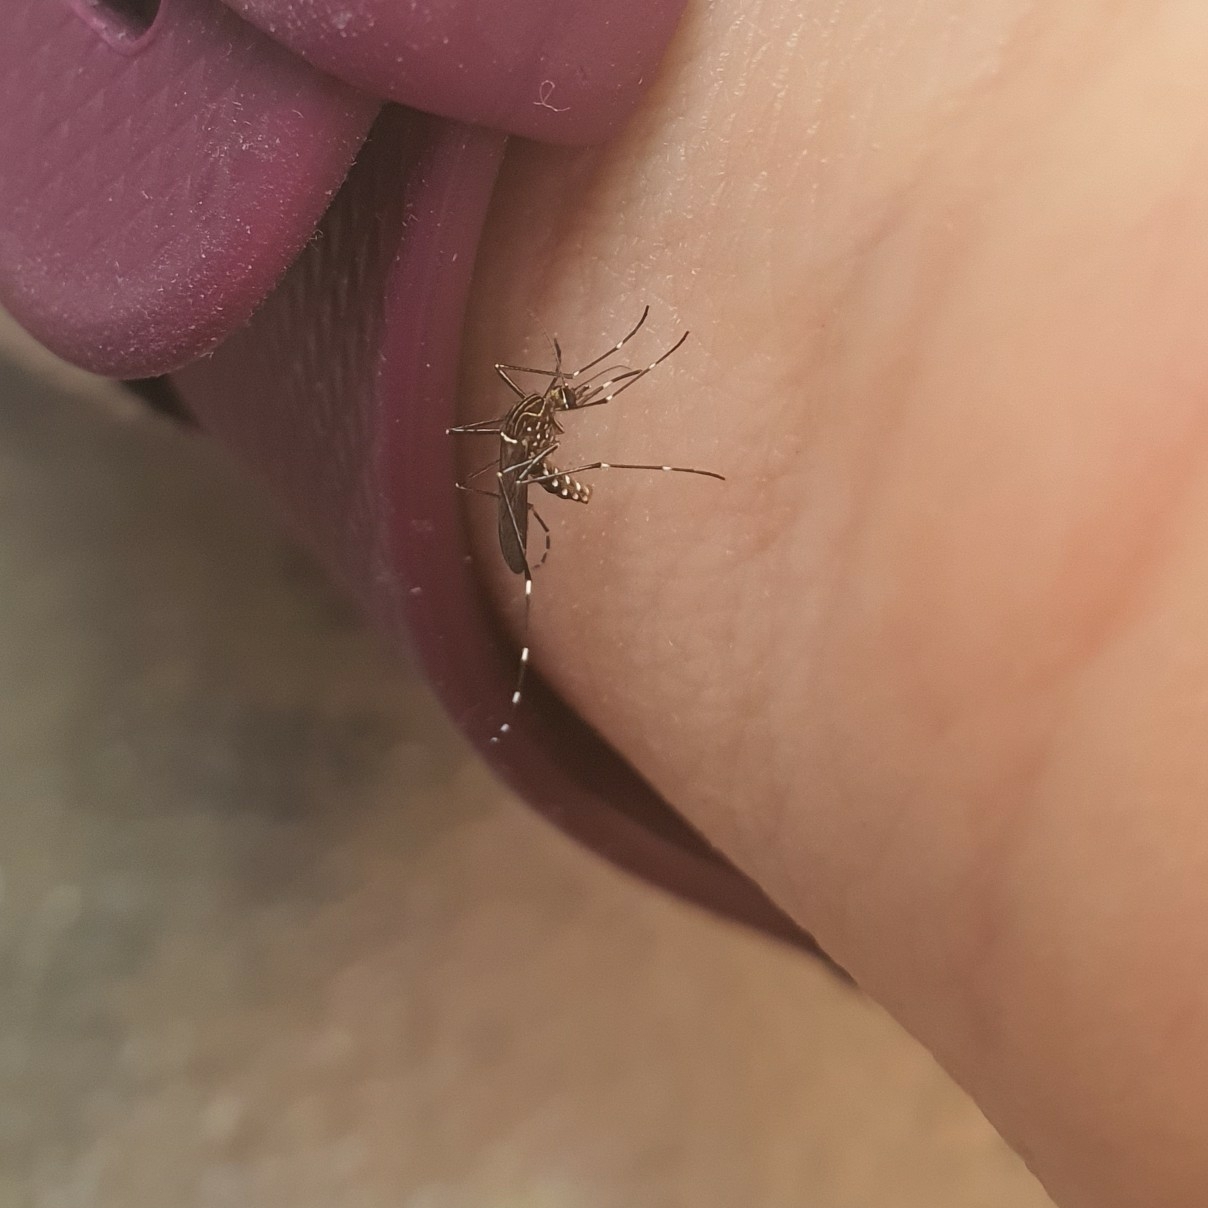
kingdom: Animalia
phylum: Arthropoda
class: Insecta
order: Diptera
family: Culicidae
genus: Aedes
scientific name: Aedes notoscriptus
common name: Australian backyard mosquito
